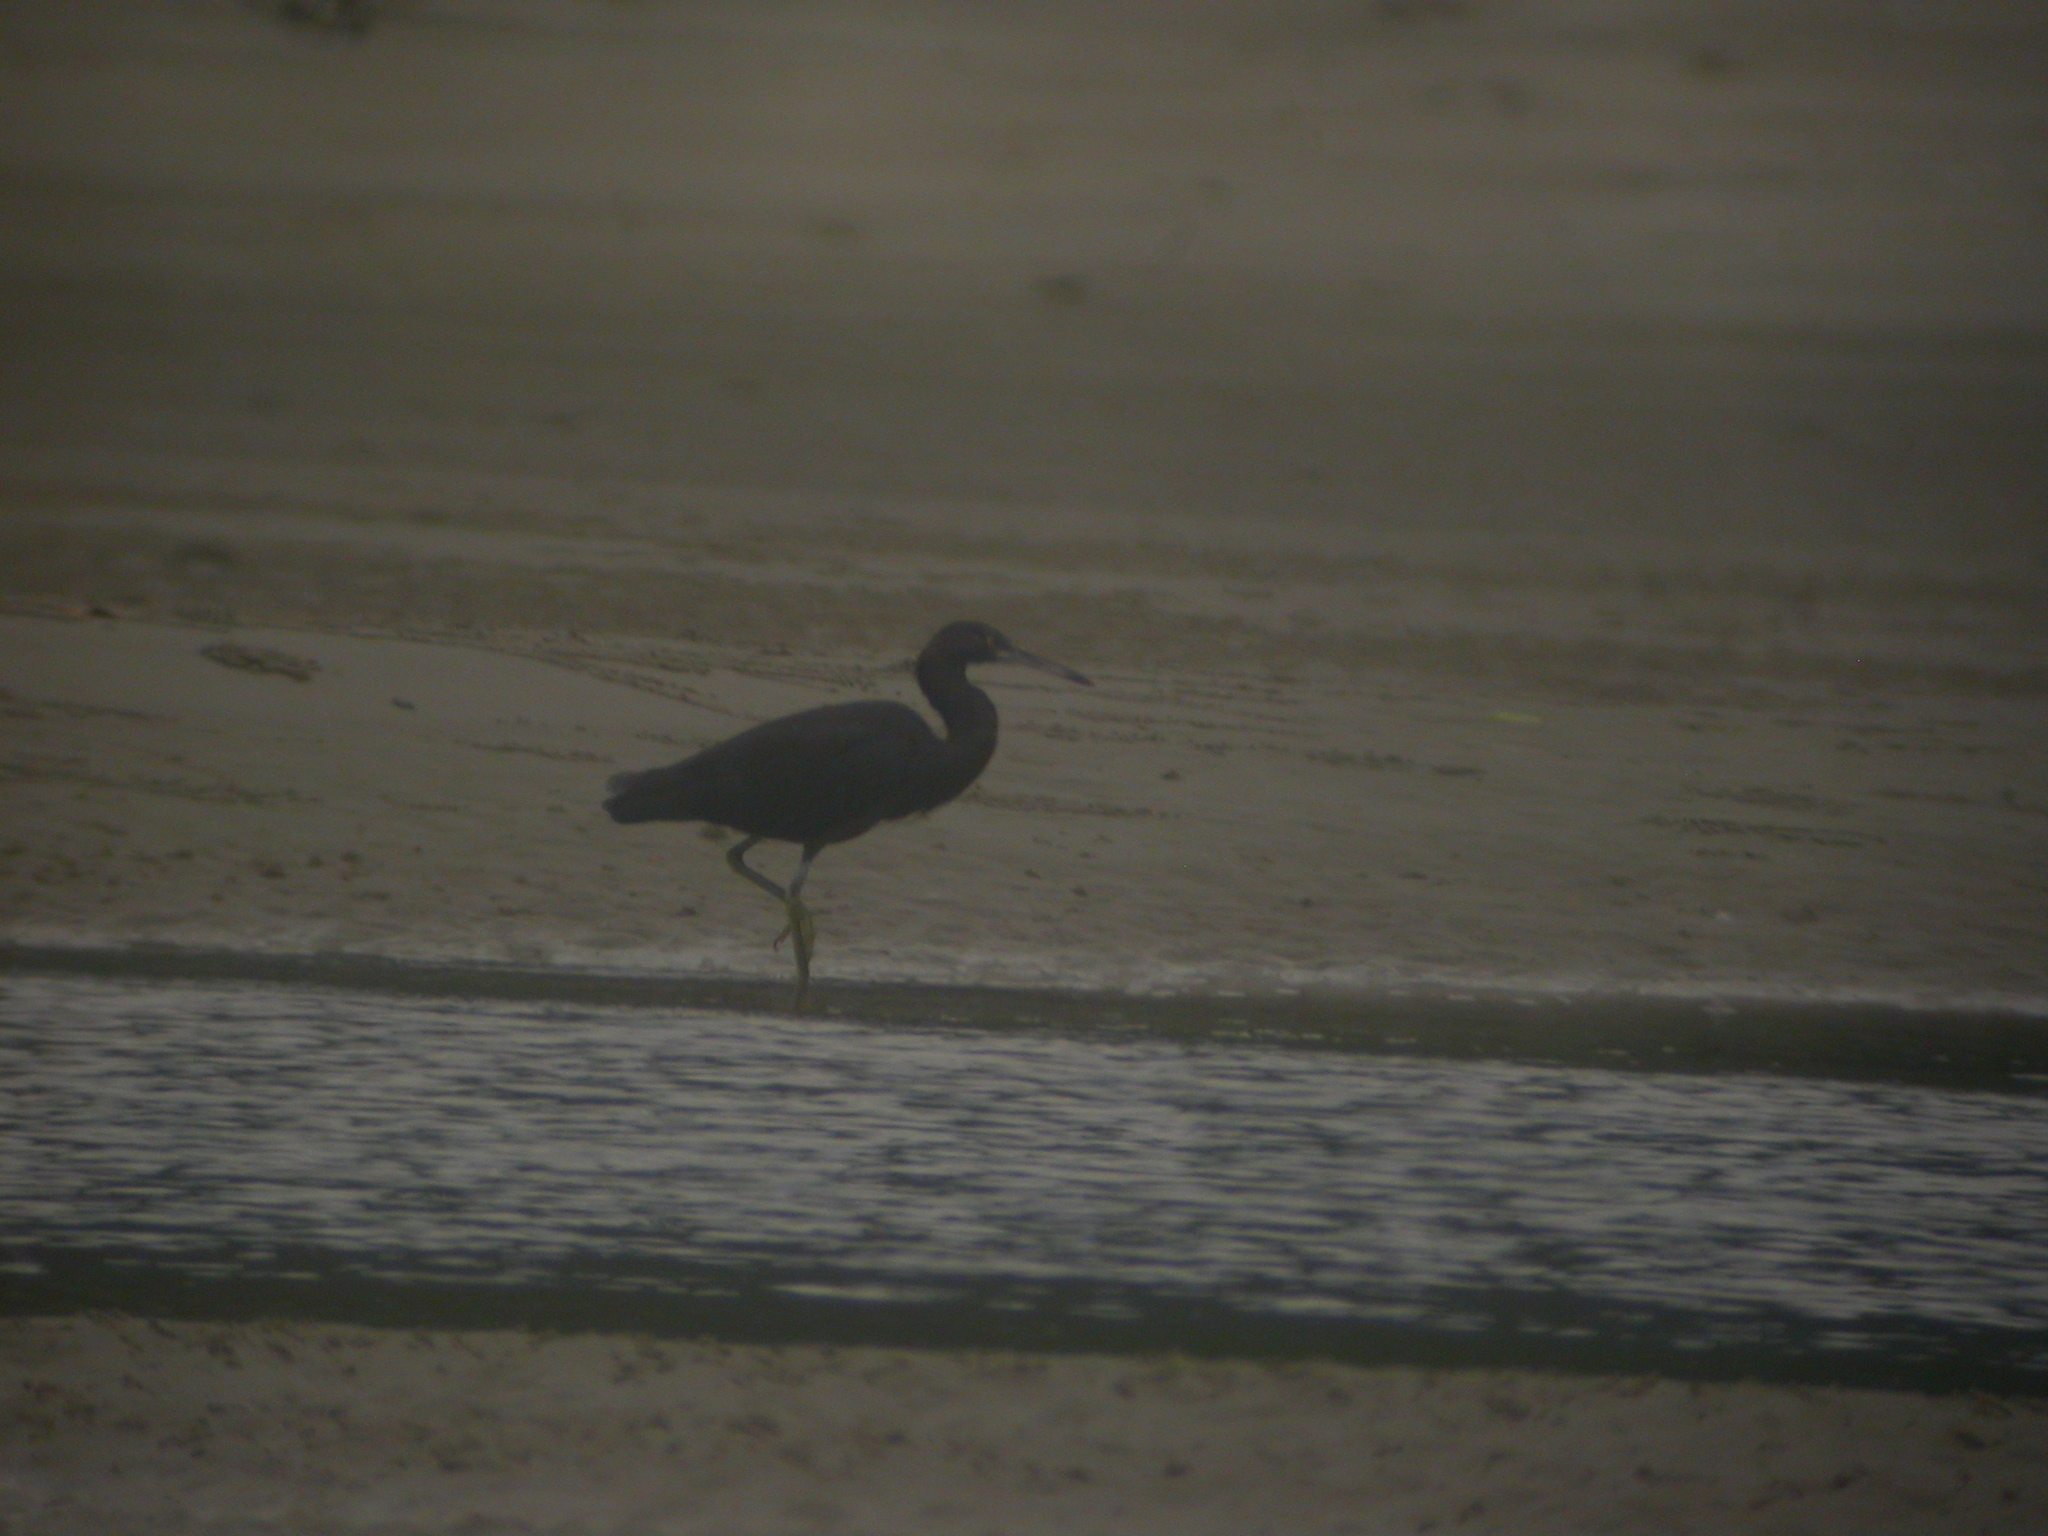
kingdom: Animalia
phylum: Chordata
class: Aves
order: Pelecaniformes
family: Ardeidae
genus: Egretta
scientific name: Egretta sacra
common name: Pacific reef heron
